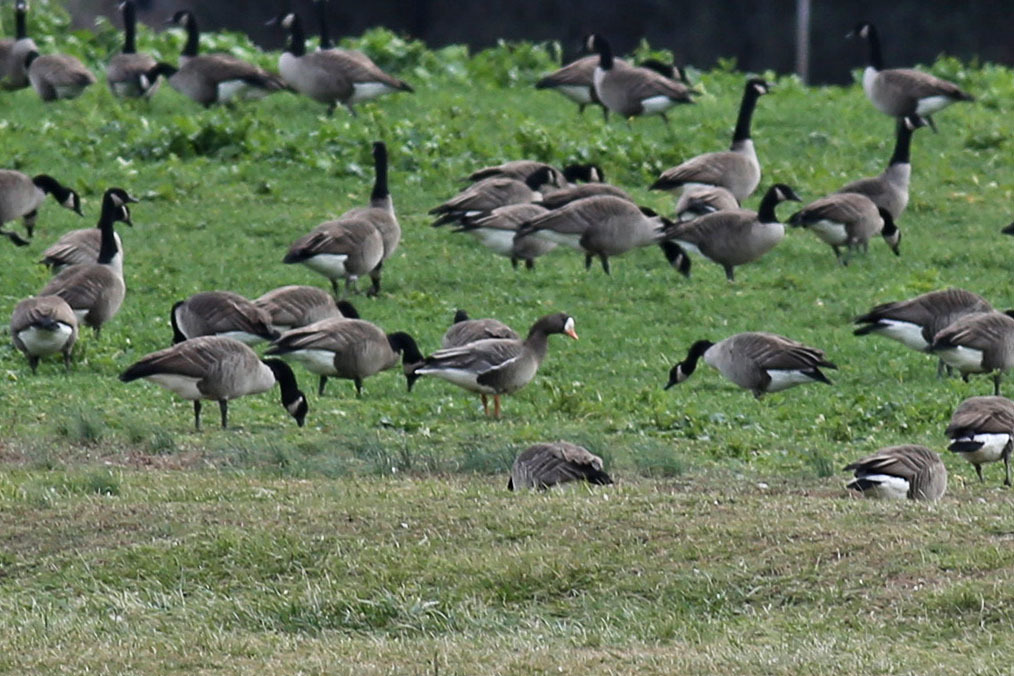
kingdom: Animalia
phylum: Chordata
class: Aves
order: Anseriformes
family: Anatidae
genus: Anser
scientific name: Anser albifrons
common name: Greater white-fronted goose
